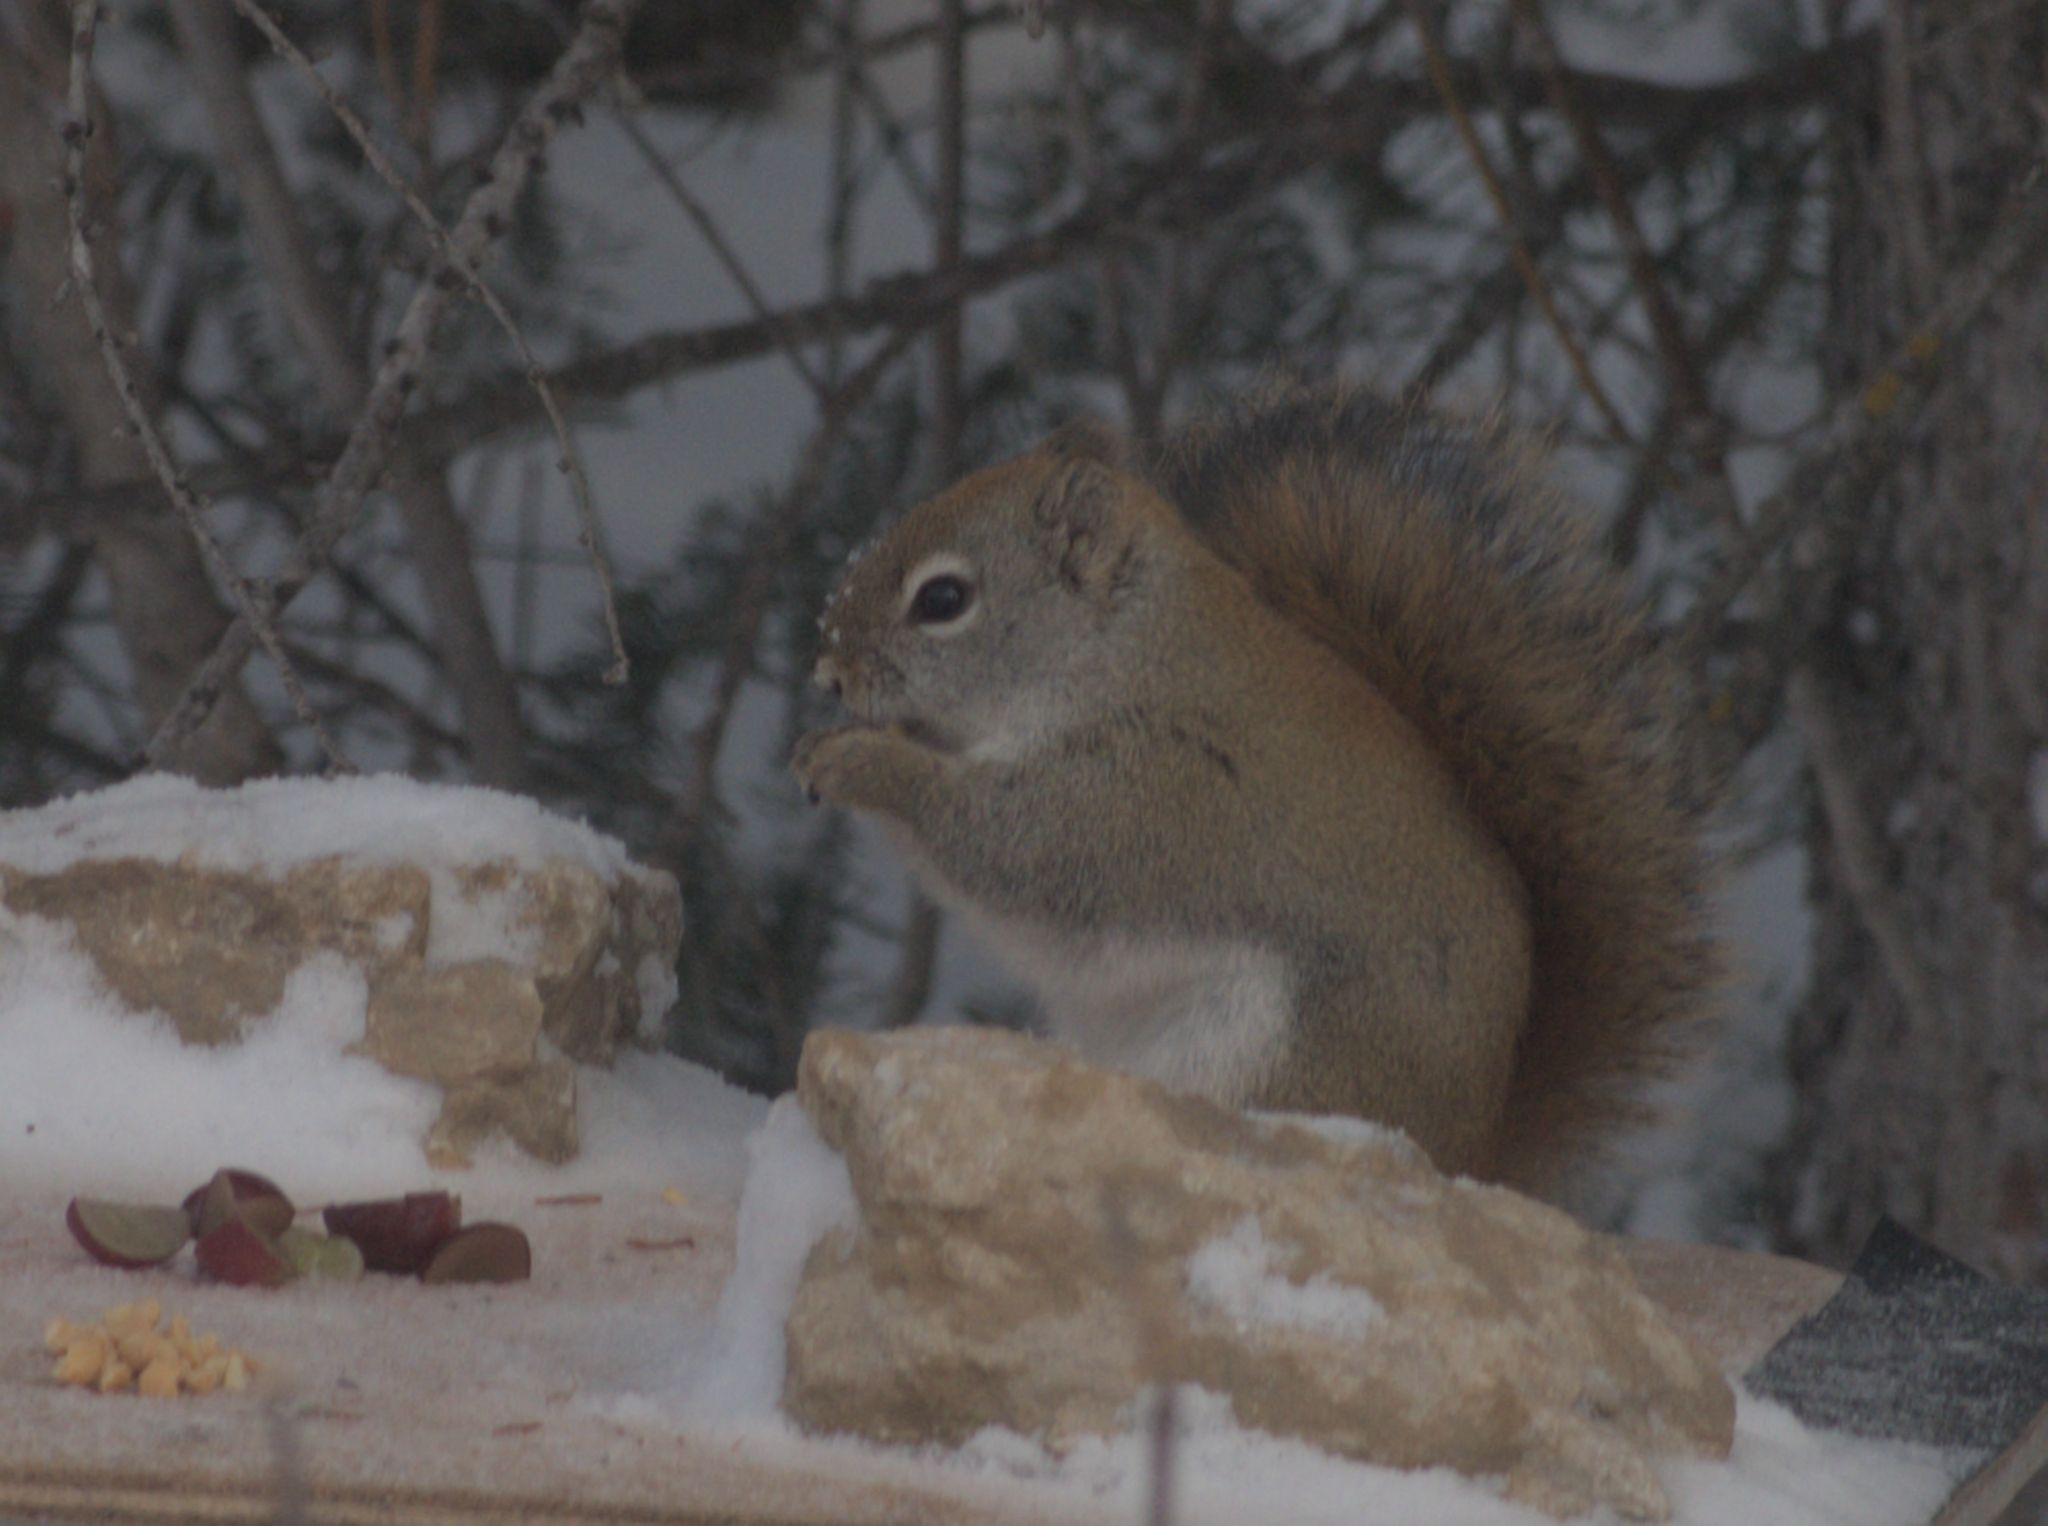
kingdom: Animalia
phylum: Chordata
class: Mammalia
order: Rodentia
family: Sciuridae
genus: Tamiasciurus
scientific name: Tamiasciurus hudsonicus
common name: Red squirrel
